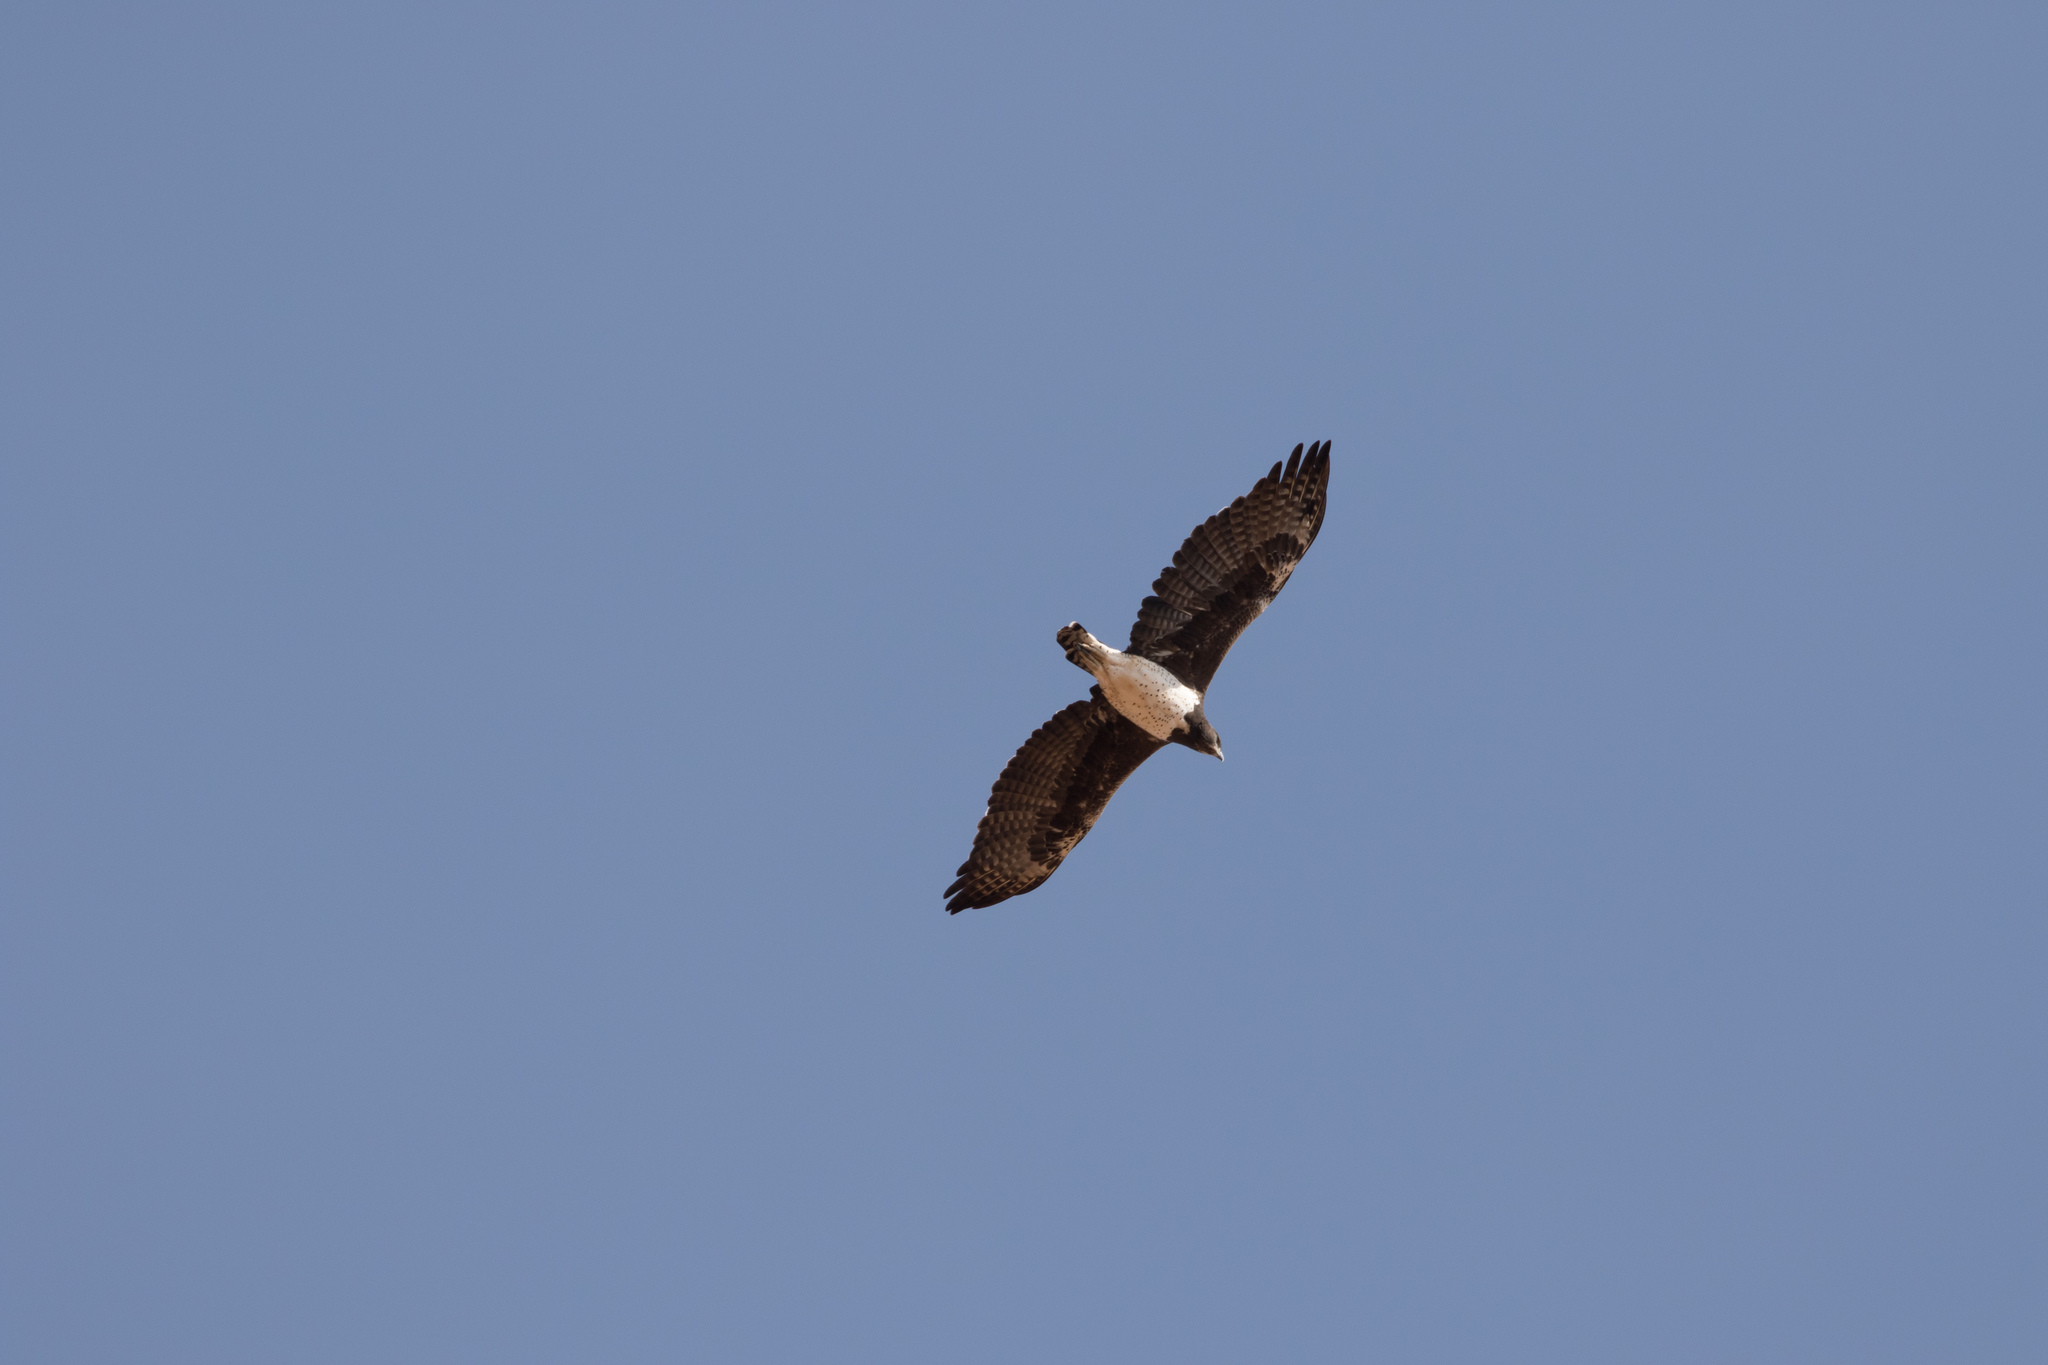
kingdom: Animalia
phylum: Chordata
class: Aves
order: Accipitriformes
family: Accipitridae
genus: Polemaetus
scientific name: Polemaetus bellicosus
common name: Martial eagle
